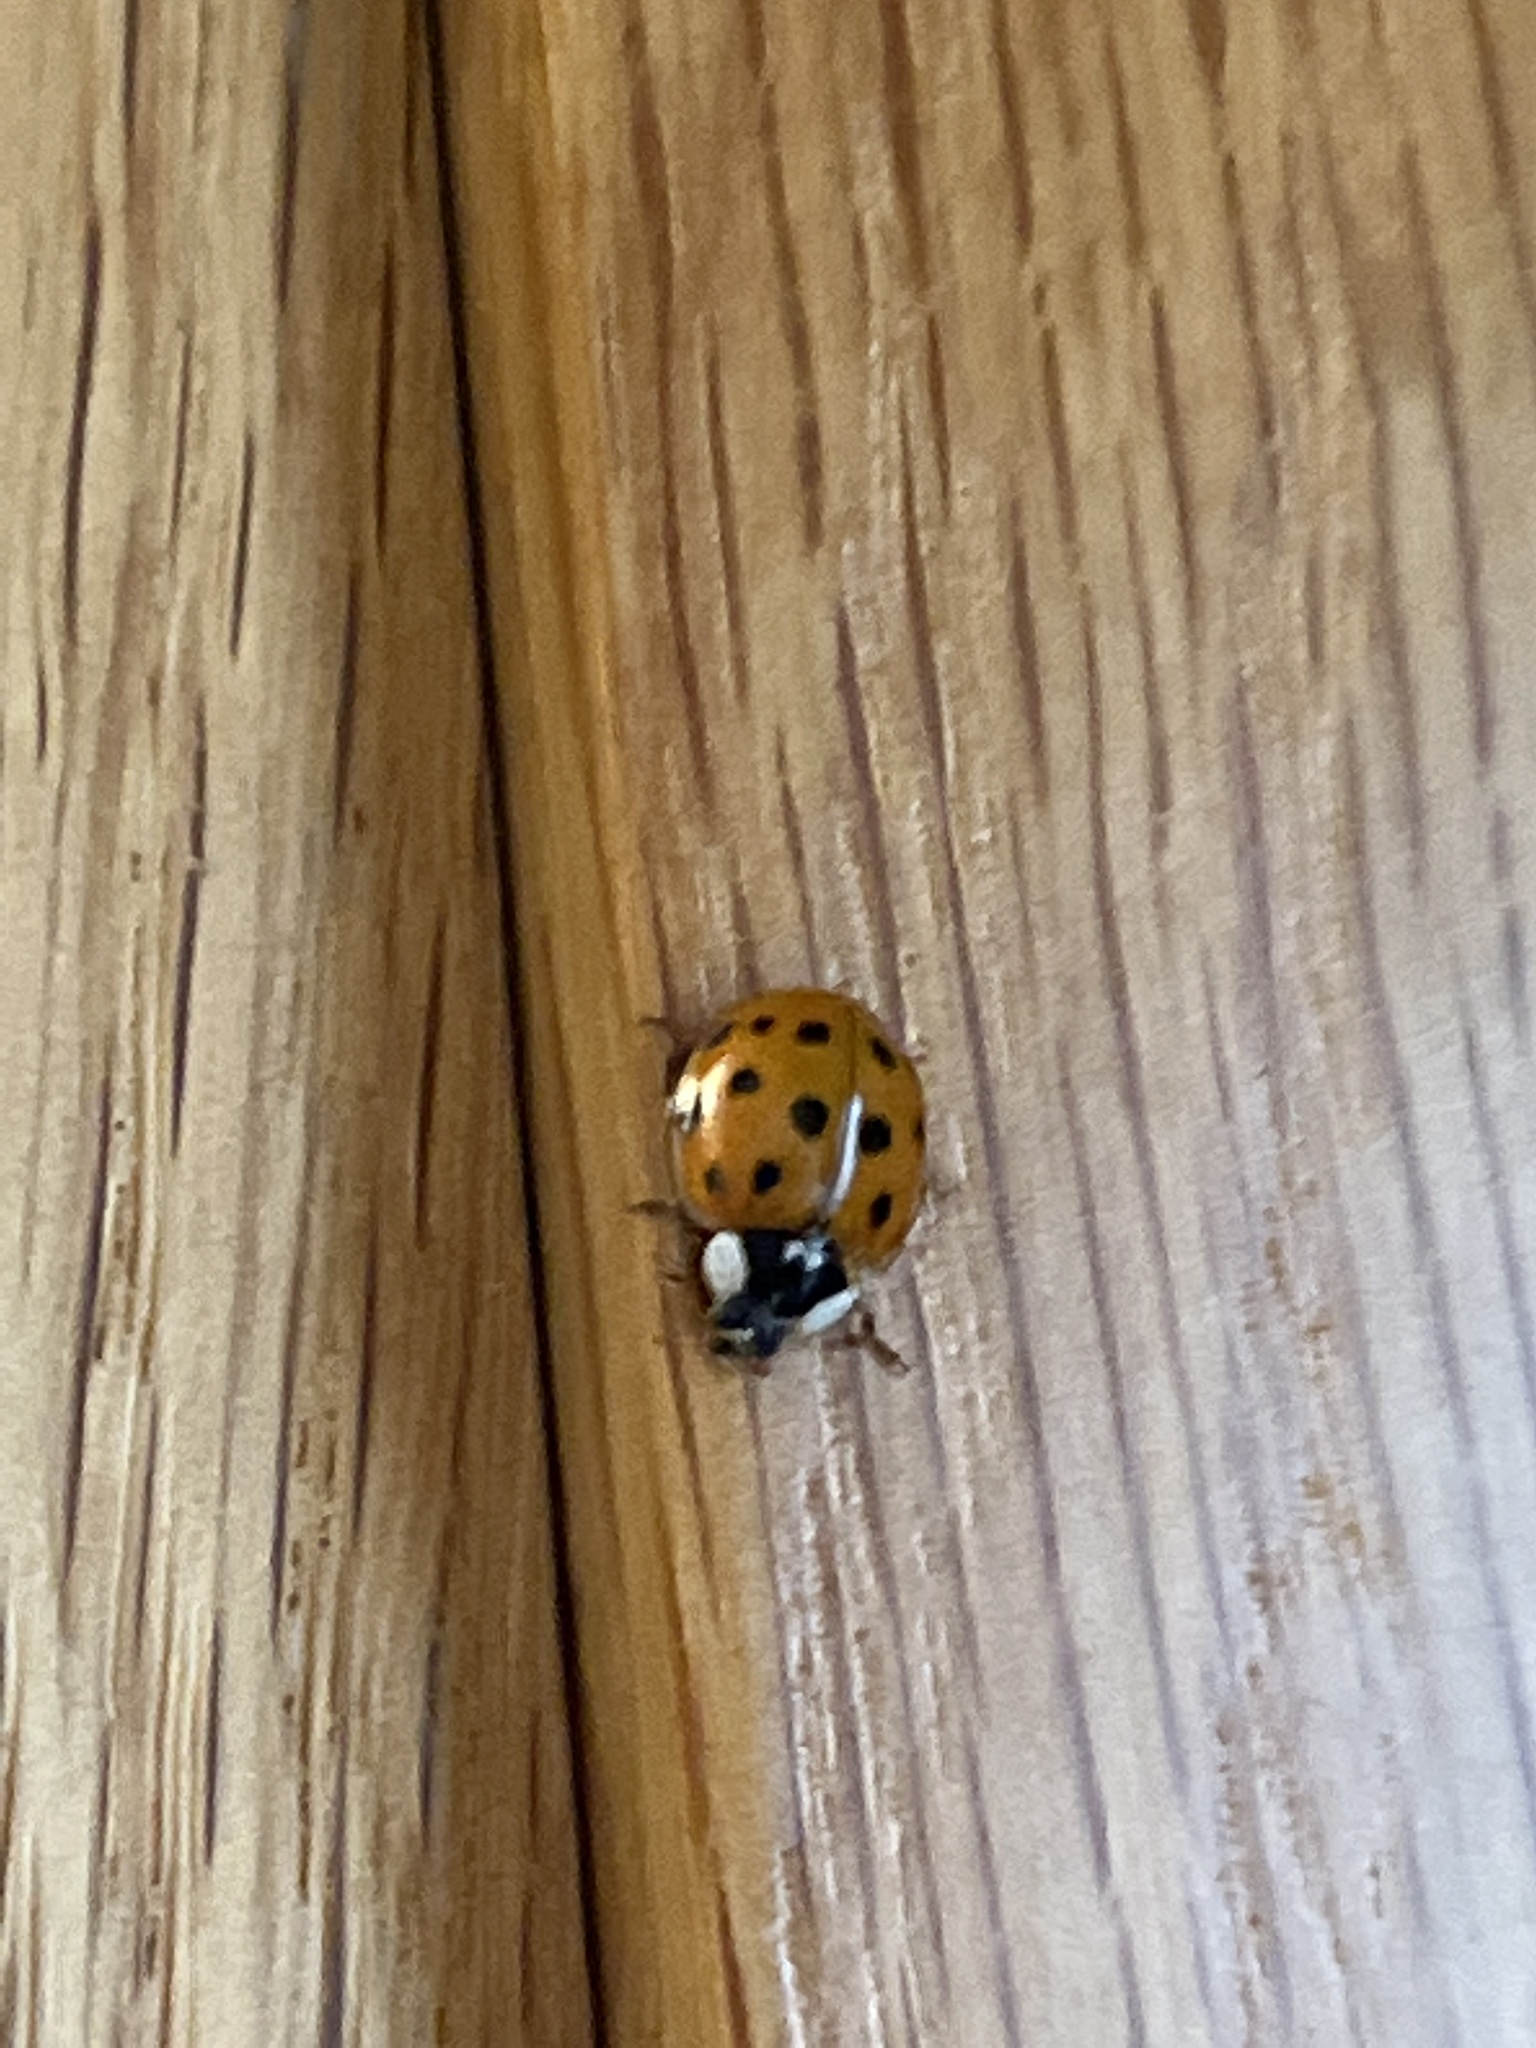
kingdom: Animalia
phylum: Arthropoda
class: Insecta
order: Coleoptera
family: Coccinellidae
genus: Harmonia
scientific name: Harmonia axyridis
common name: Harlequin ladybird
